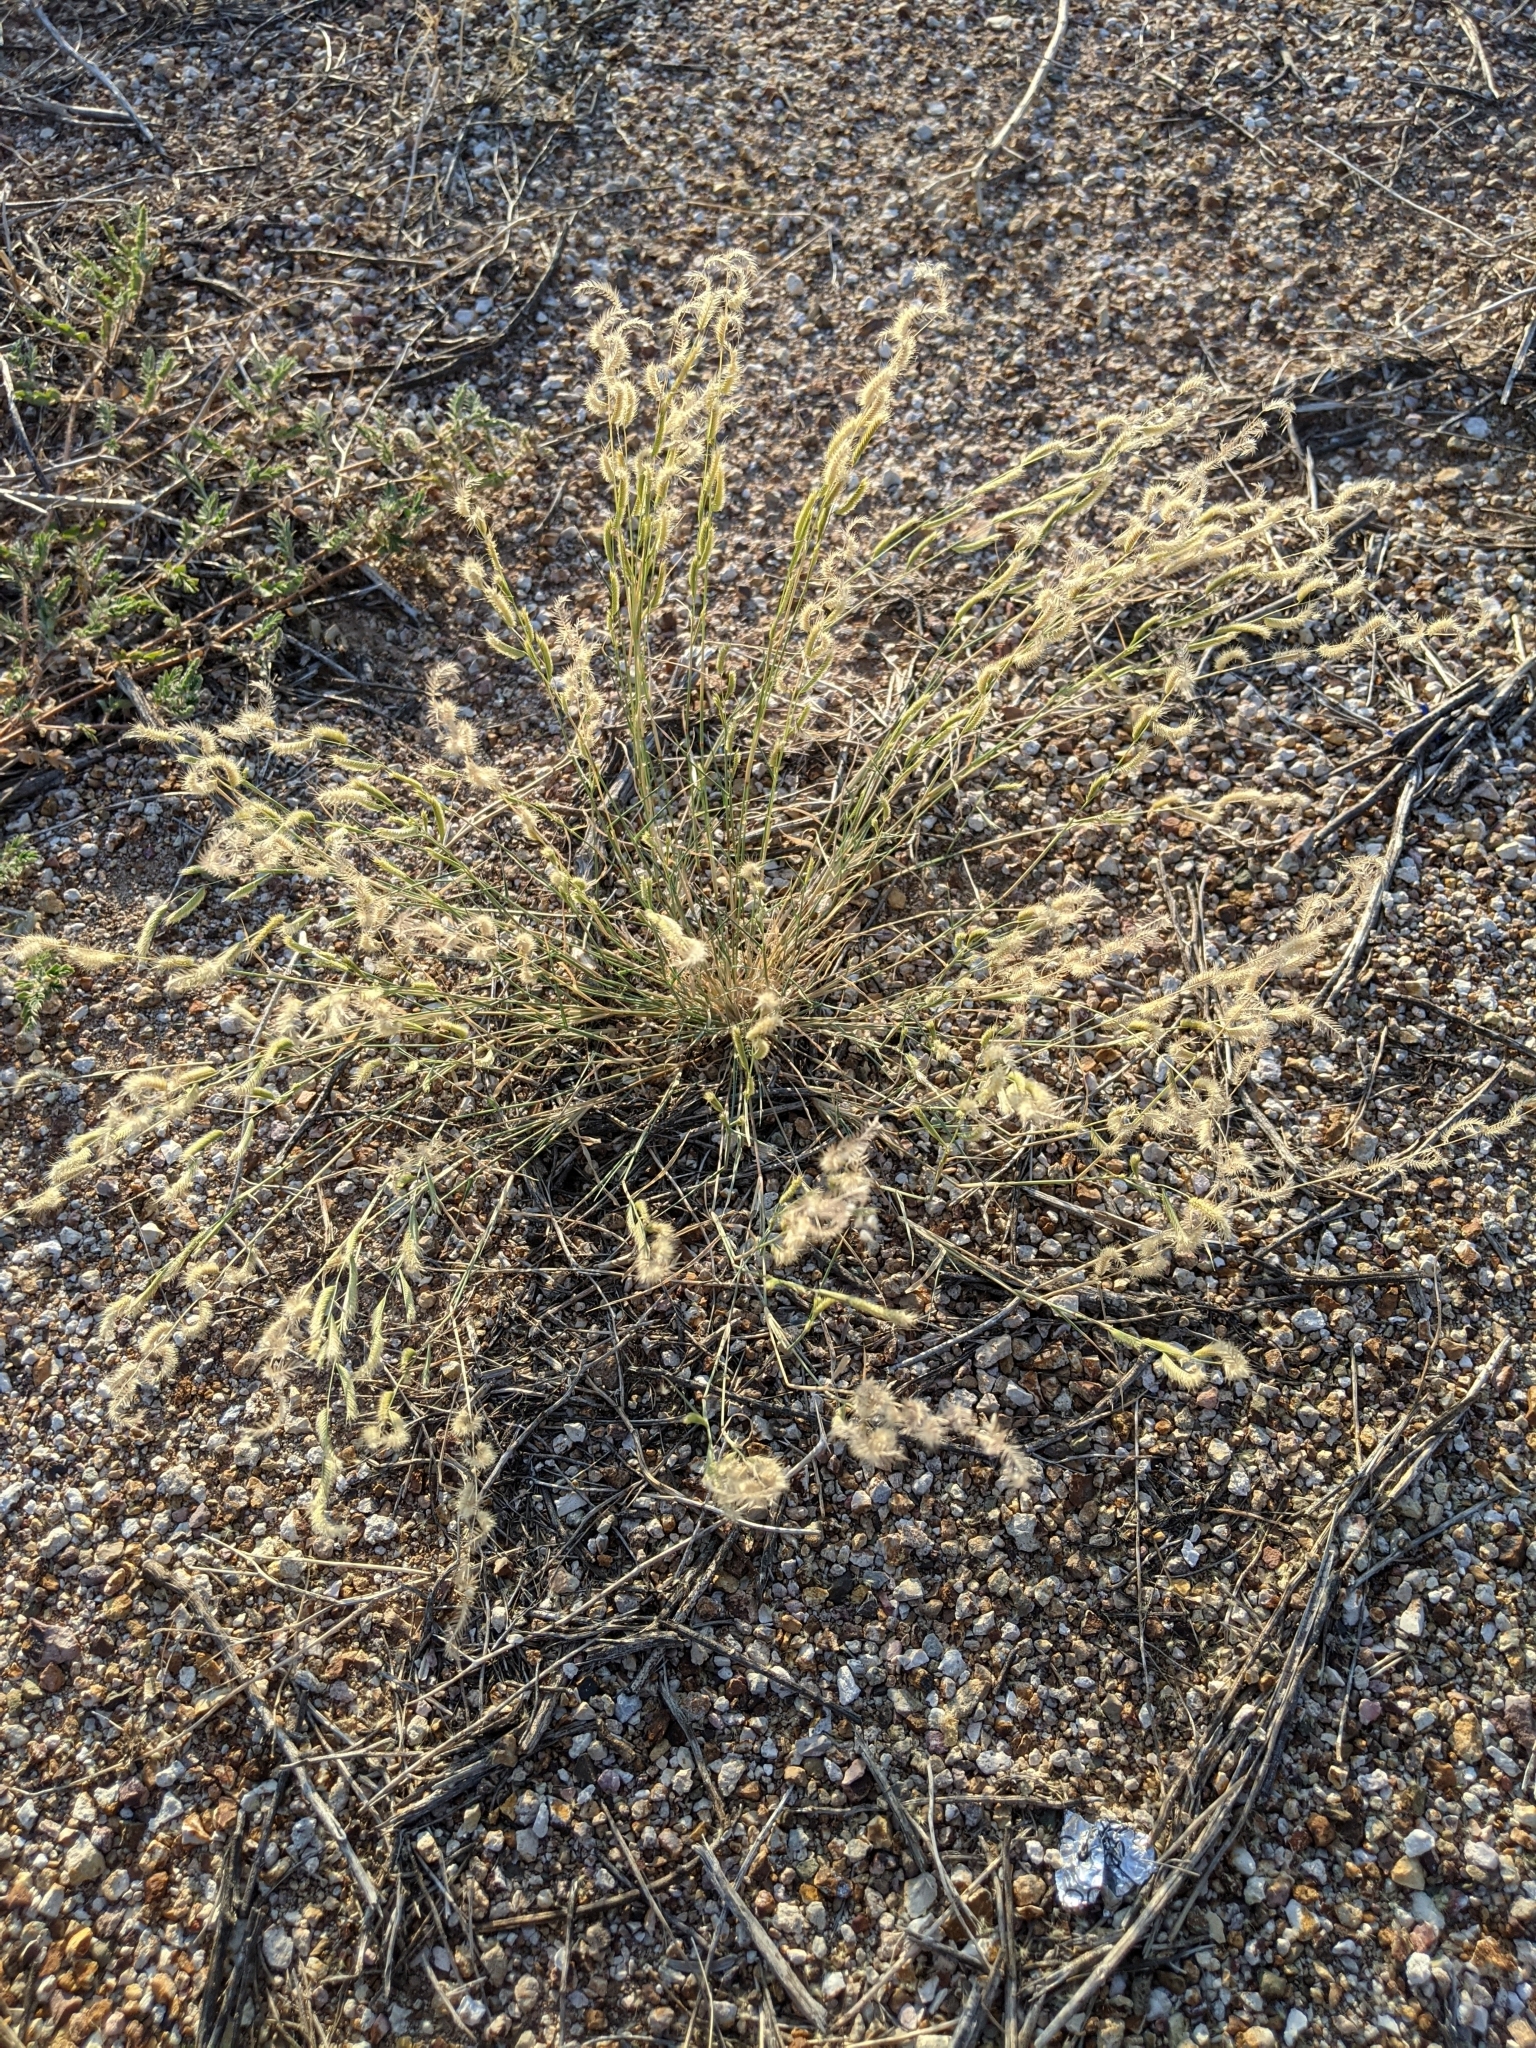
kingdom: Plantae
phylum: Tracheophyta
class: Liliopsida
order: Poales
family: Poaceae
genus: Bouteloua
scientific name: Bouteloua barbata
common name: Six-weeks grama
